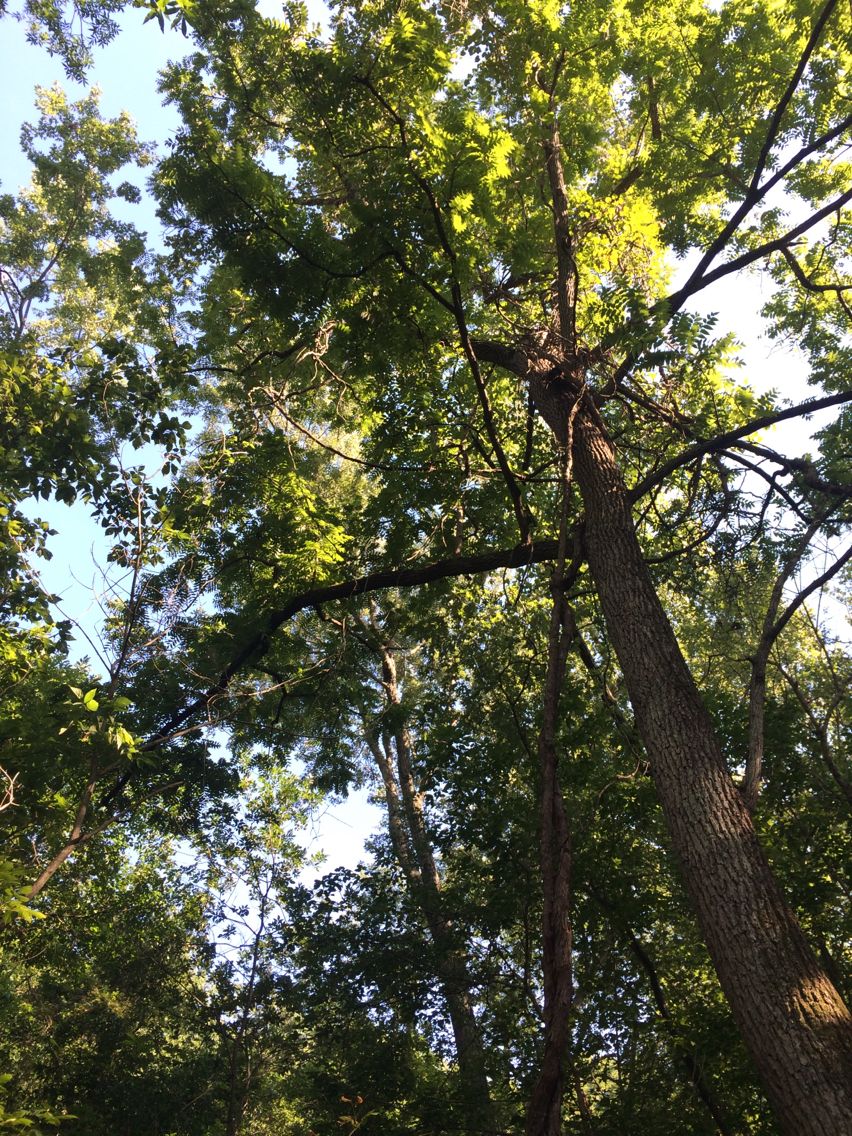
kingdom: Plantae
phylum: Tracheophyta
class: Magnoliopsida
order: Fagales
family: Juglandaceae
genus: Juglans
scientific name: Juglans nigra
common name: Black walnut
